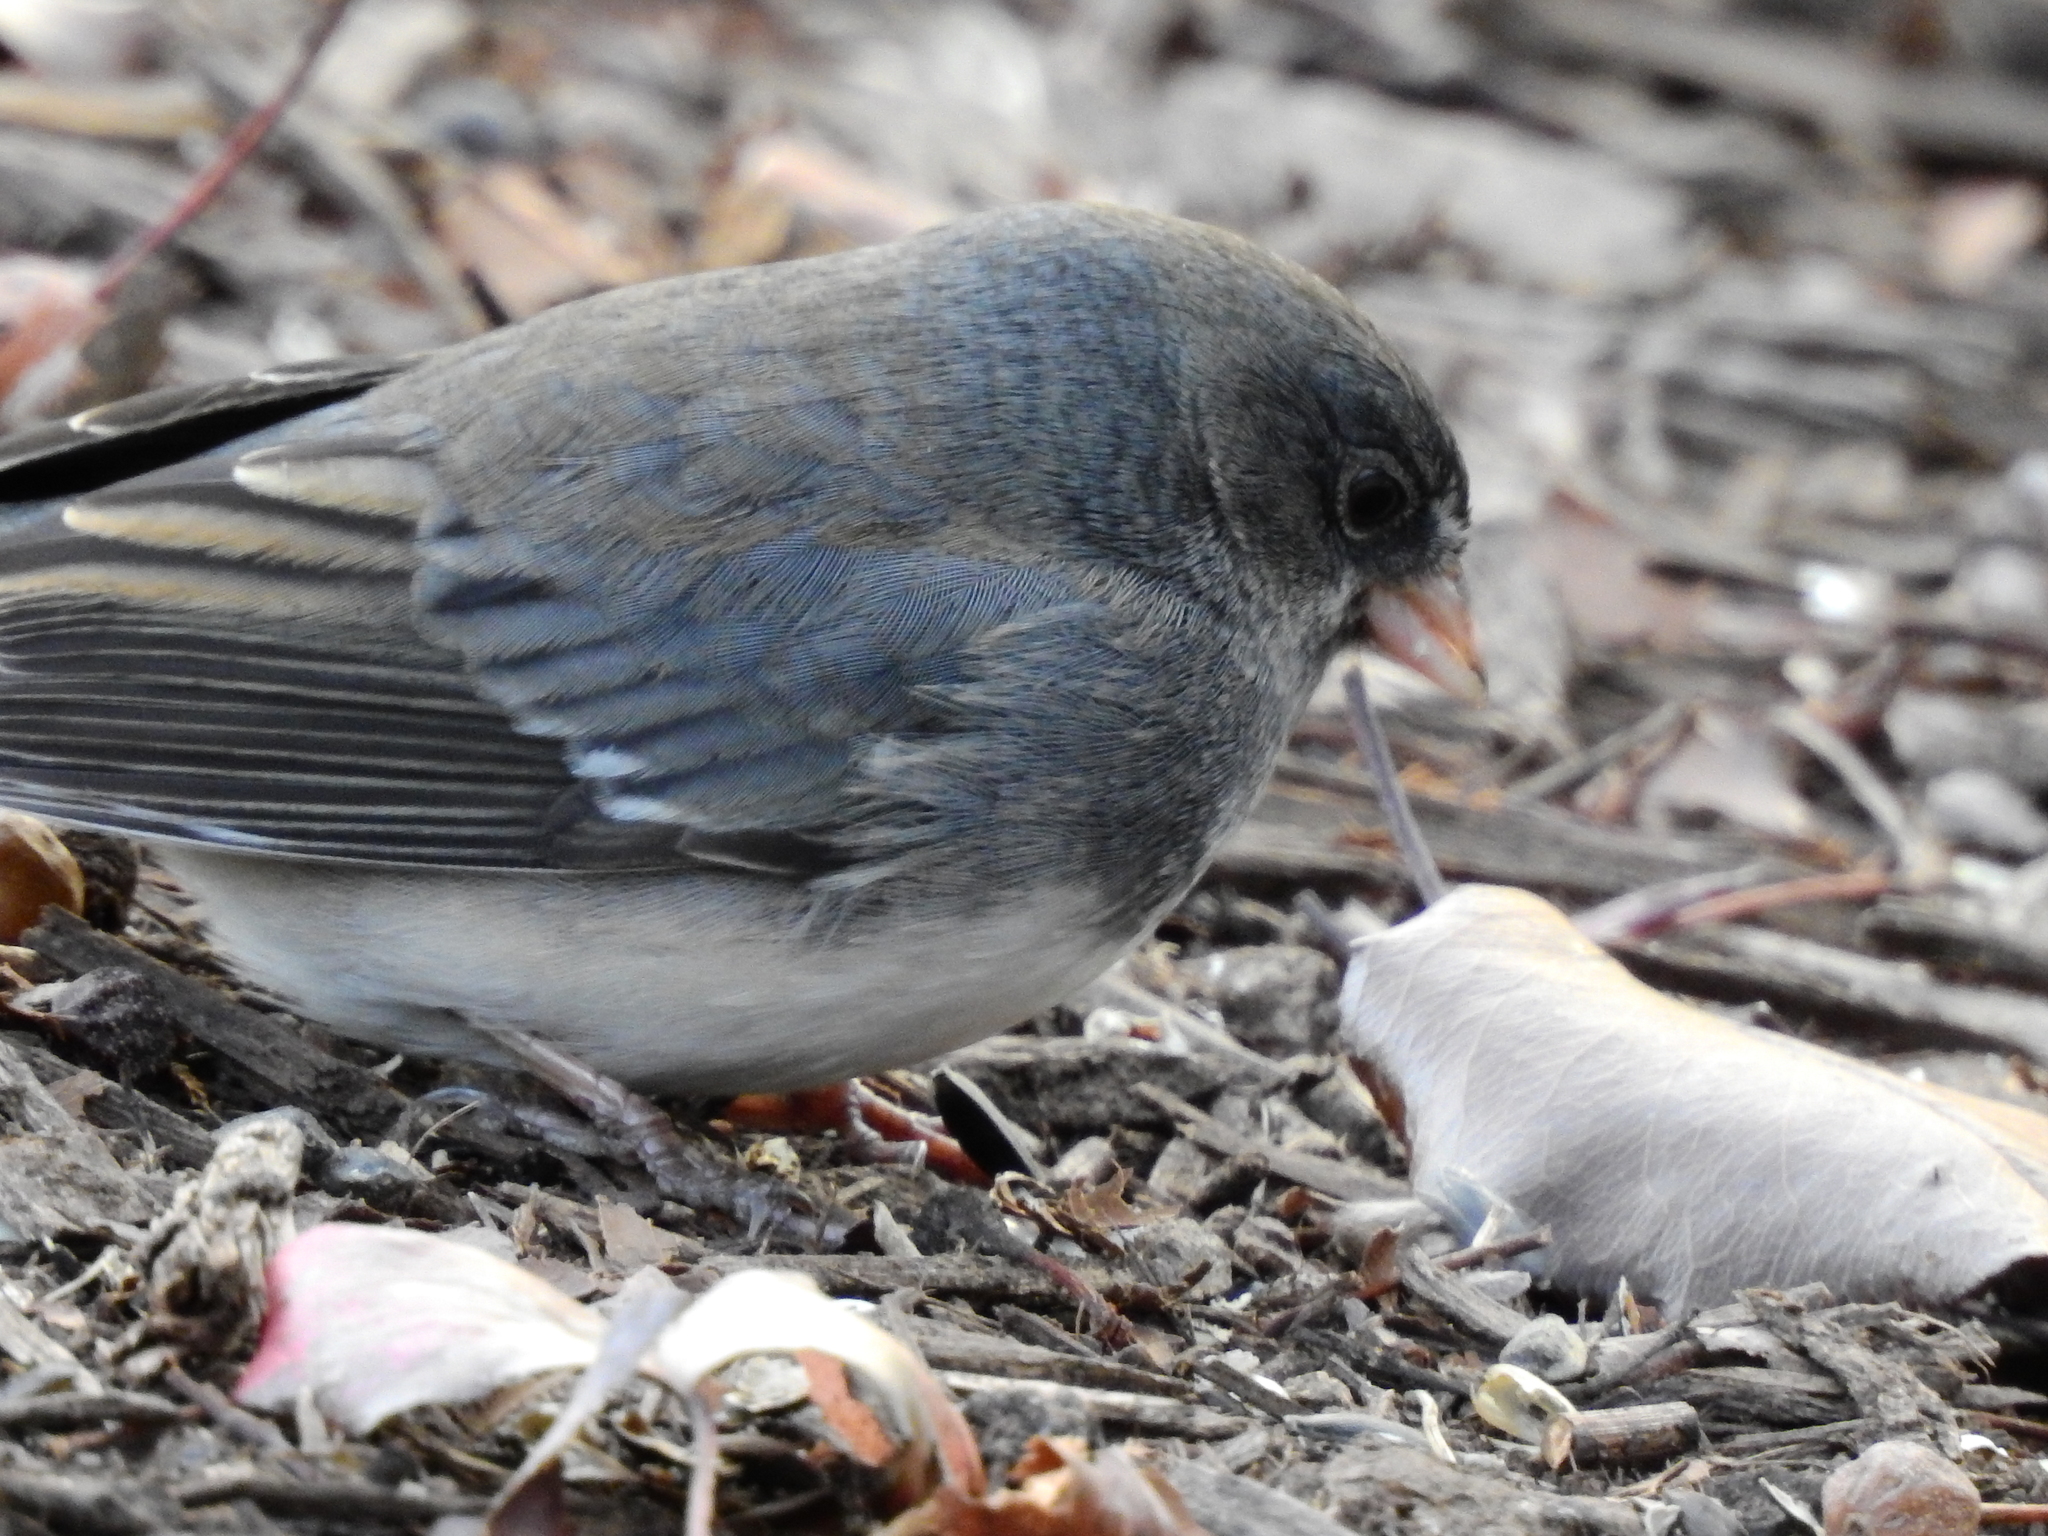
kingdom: Animalia
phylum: Chordata
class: Aves
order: Passeriformes
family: Passerellidae
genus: Junco
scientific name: Junco hyemalis
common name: Dark-eyed junco
